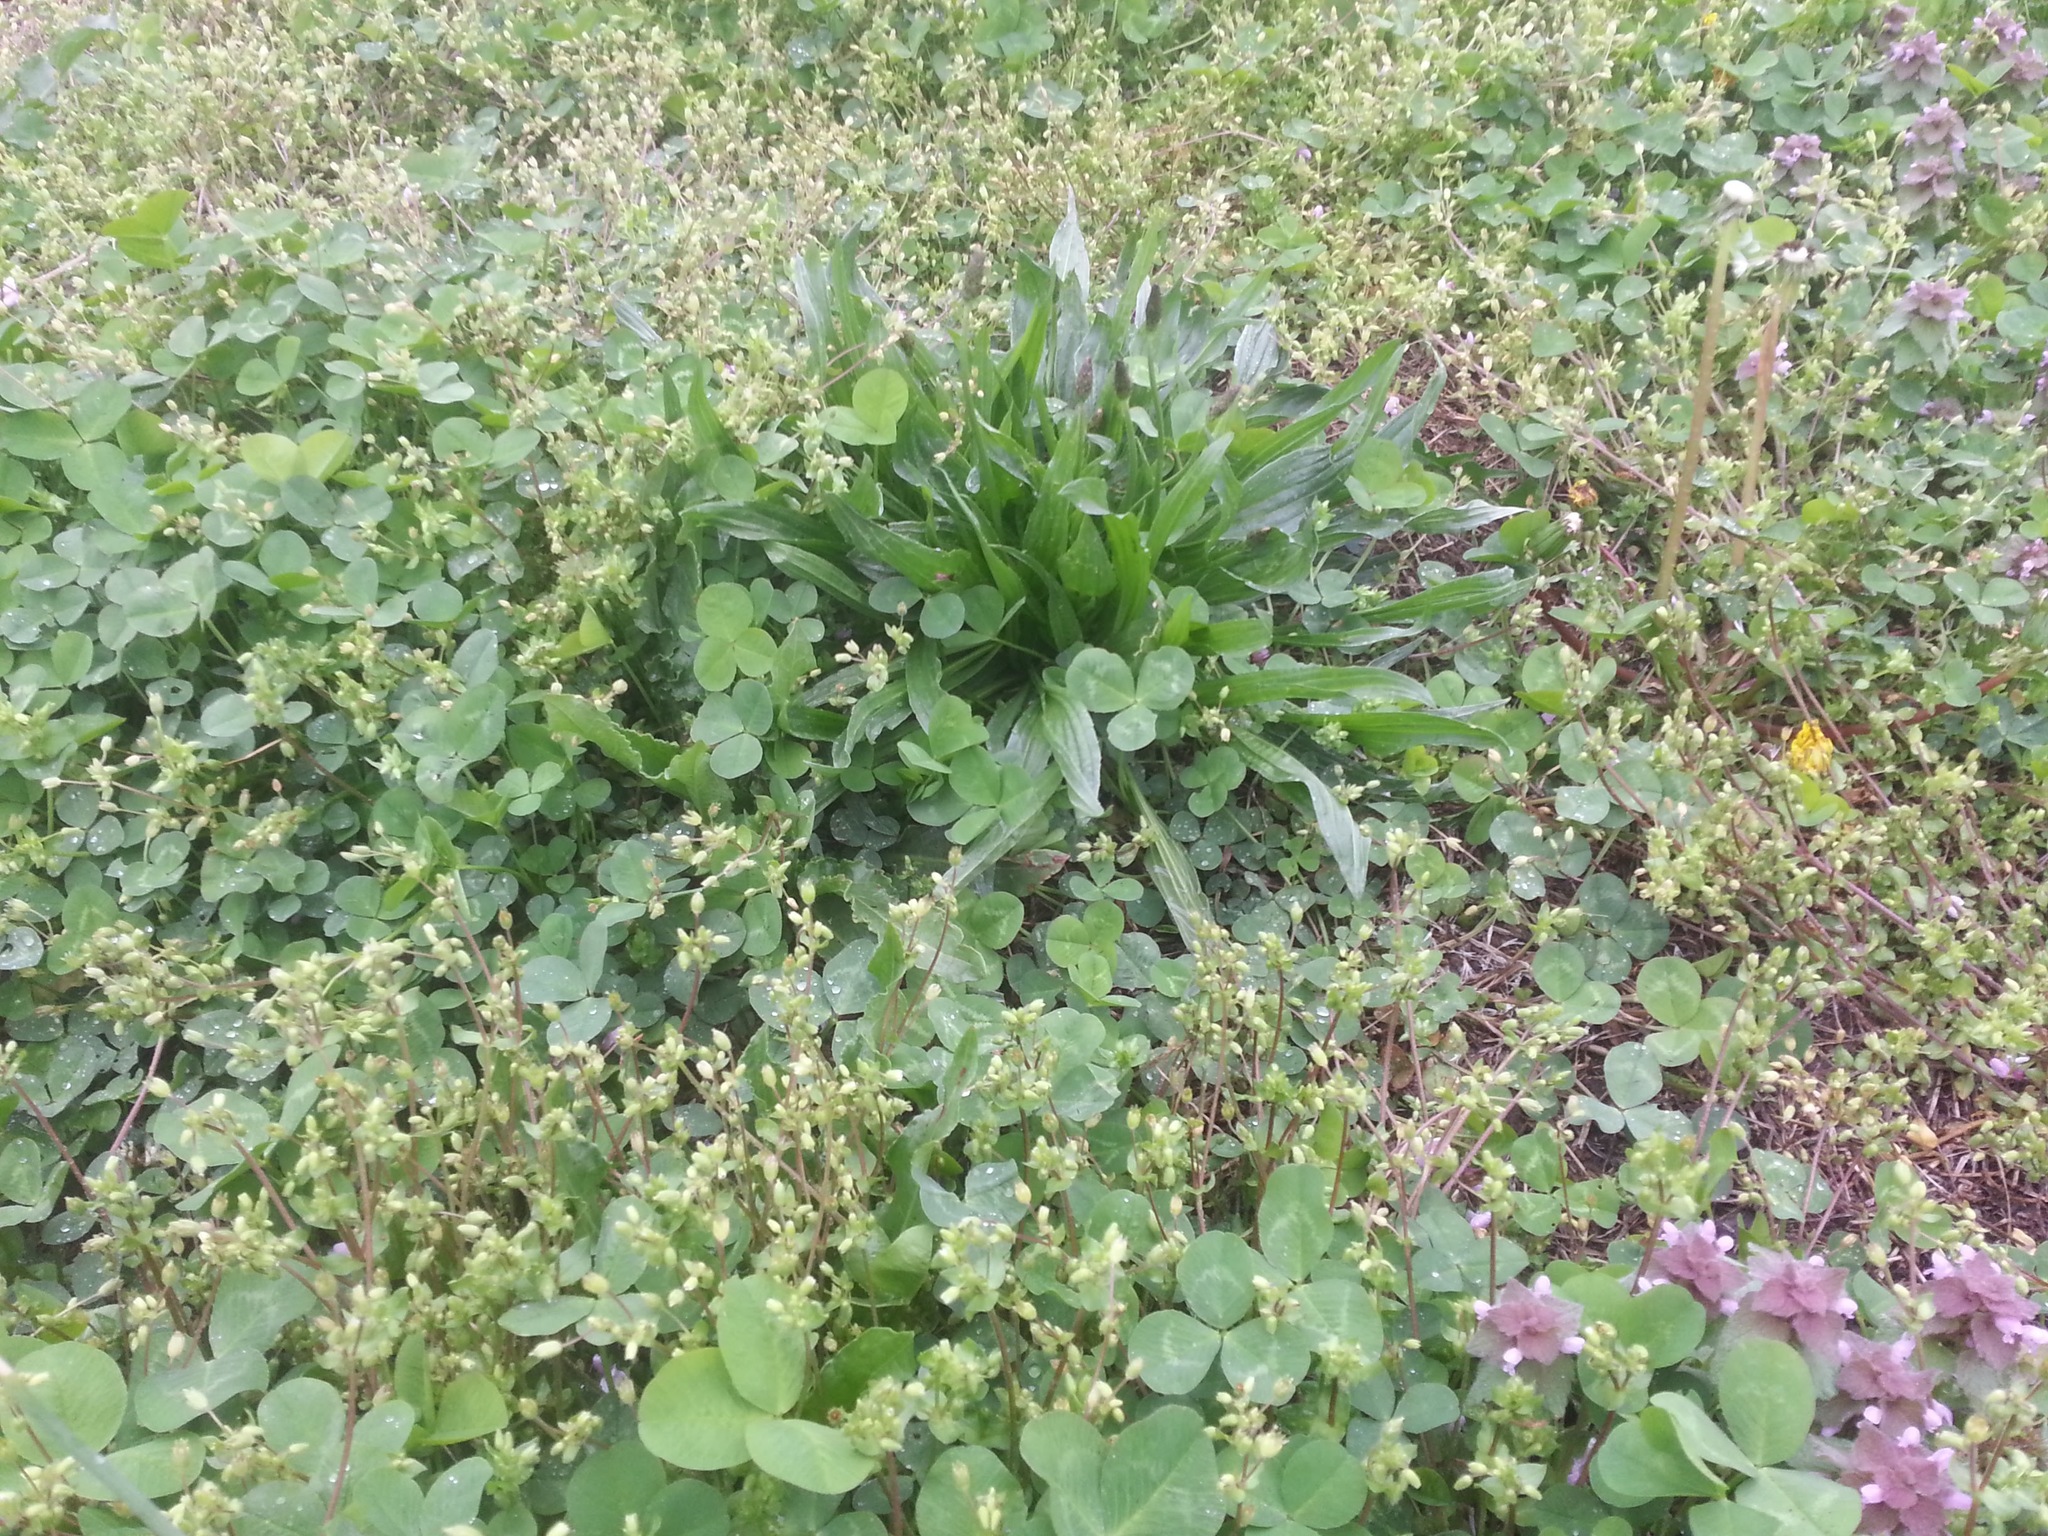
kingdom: Plantae
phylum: Tracheophyta
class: Magnoliopsida
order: Lamiales
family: Plantaginaceae
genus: Plantago
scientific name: Plantago lanceolata
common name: Ribwort plantain
